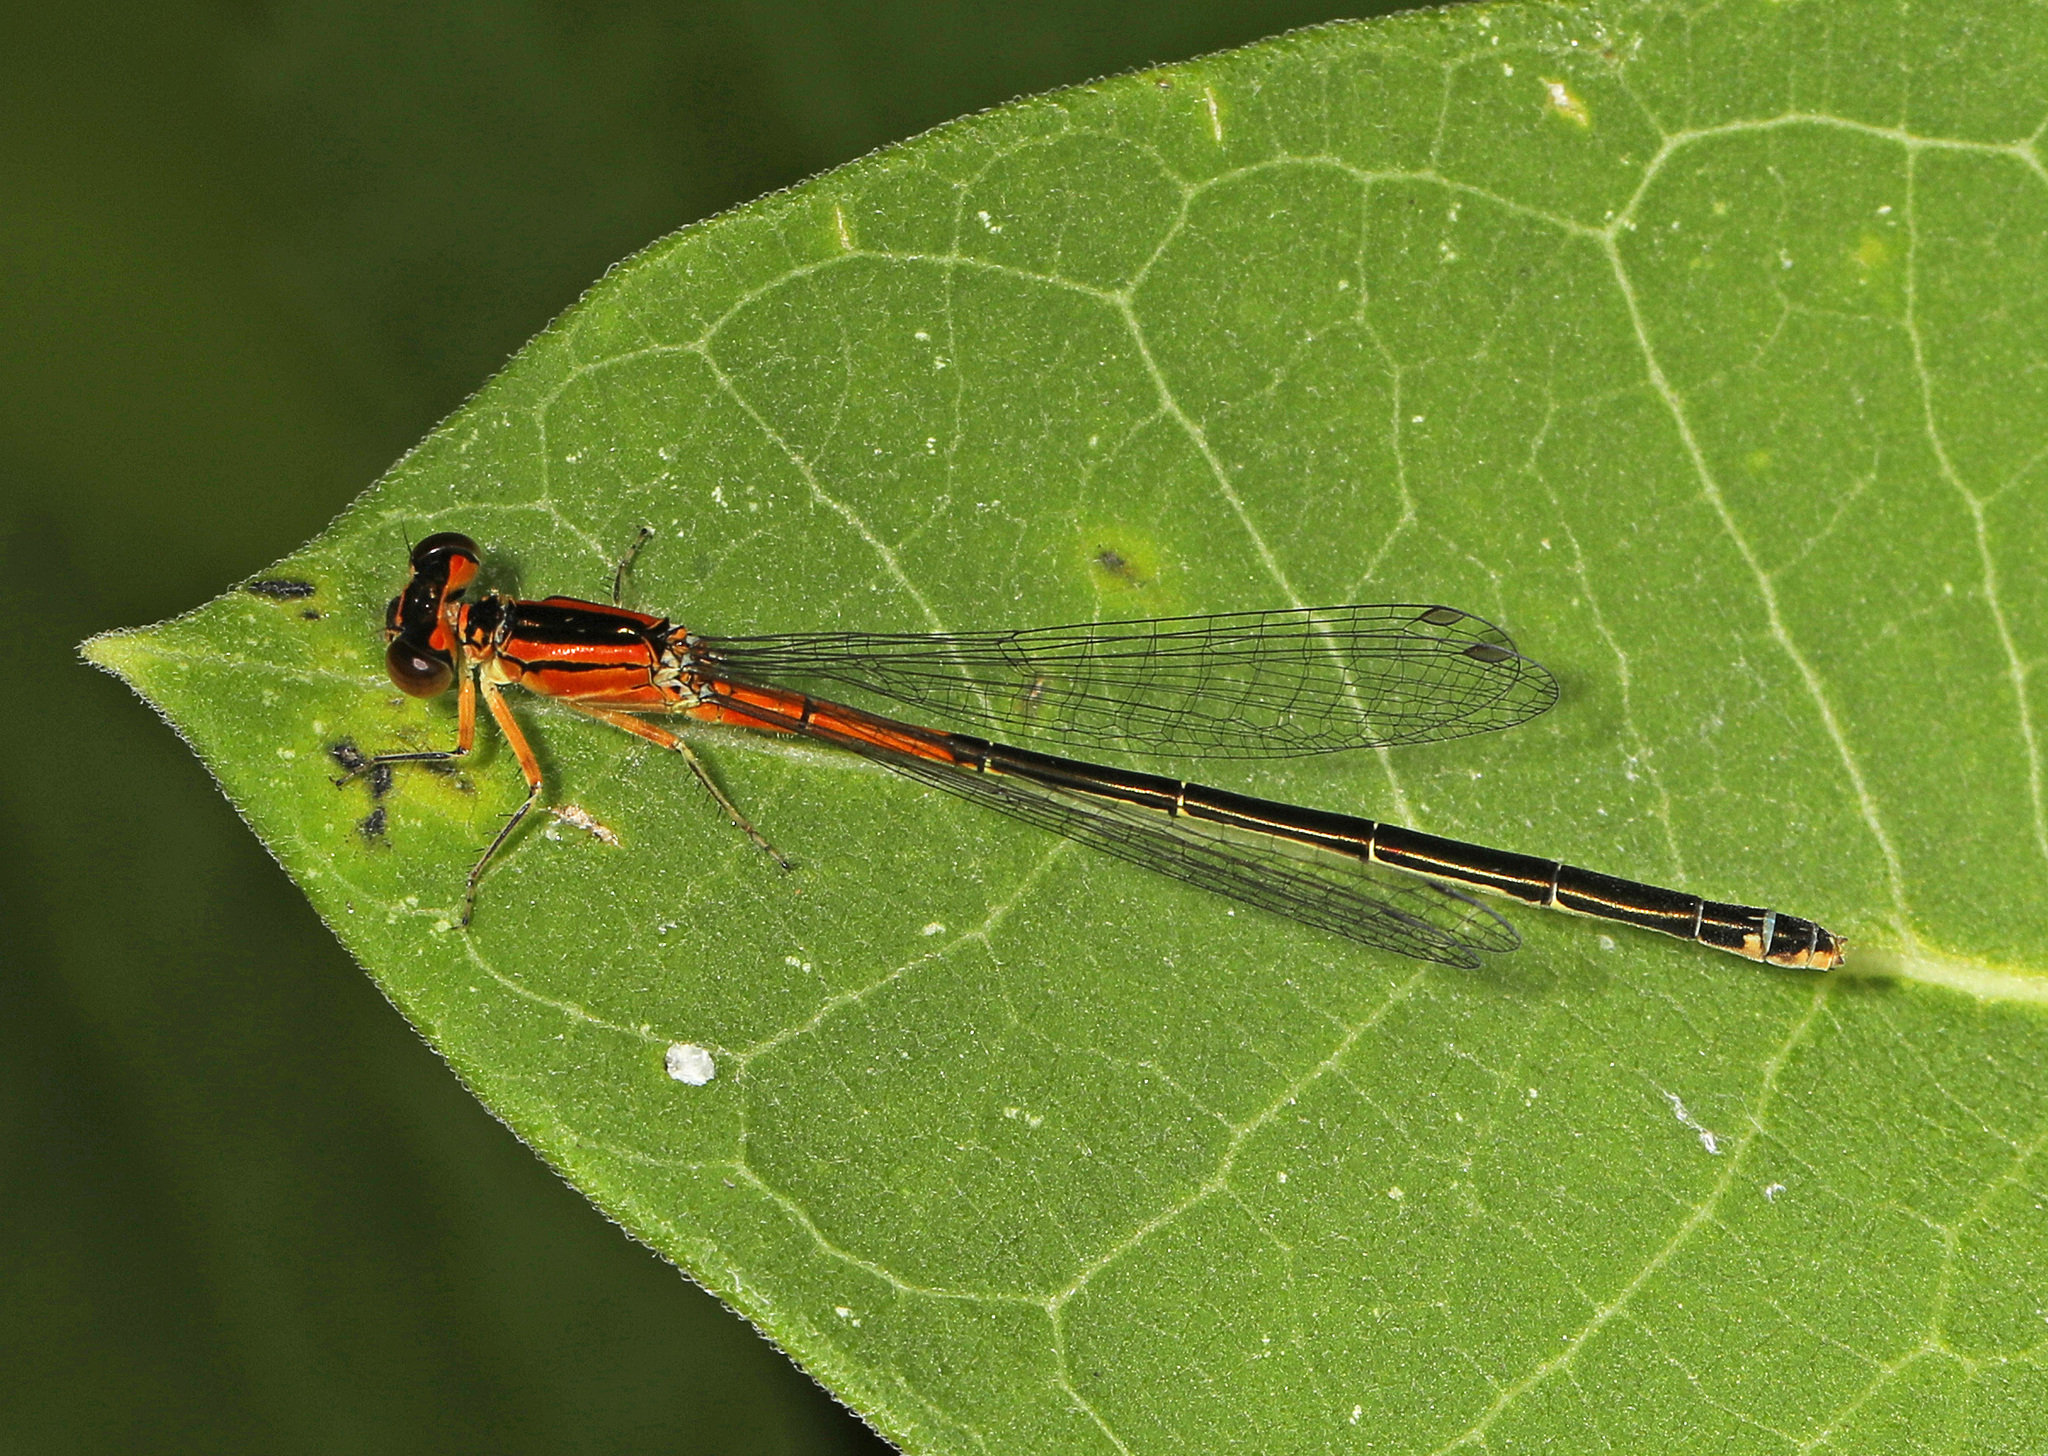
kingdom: Animalia
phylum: Arthropoda
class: Insecta
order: Odonata
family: Coenagrionidae
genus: Ischnura
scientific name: Ischnura verticalis
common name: Eastern forktail
